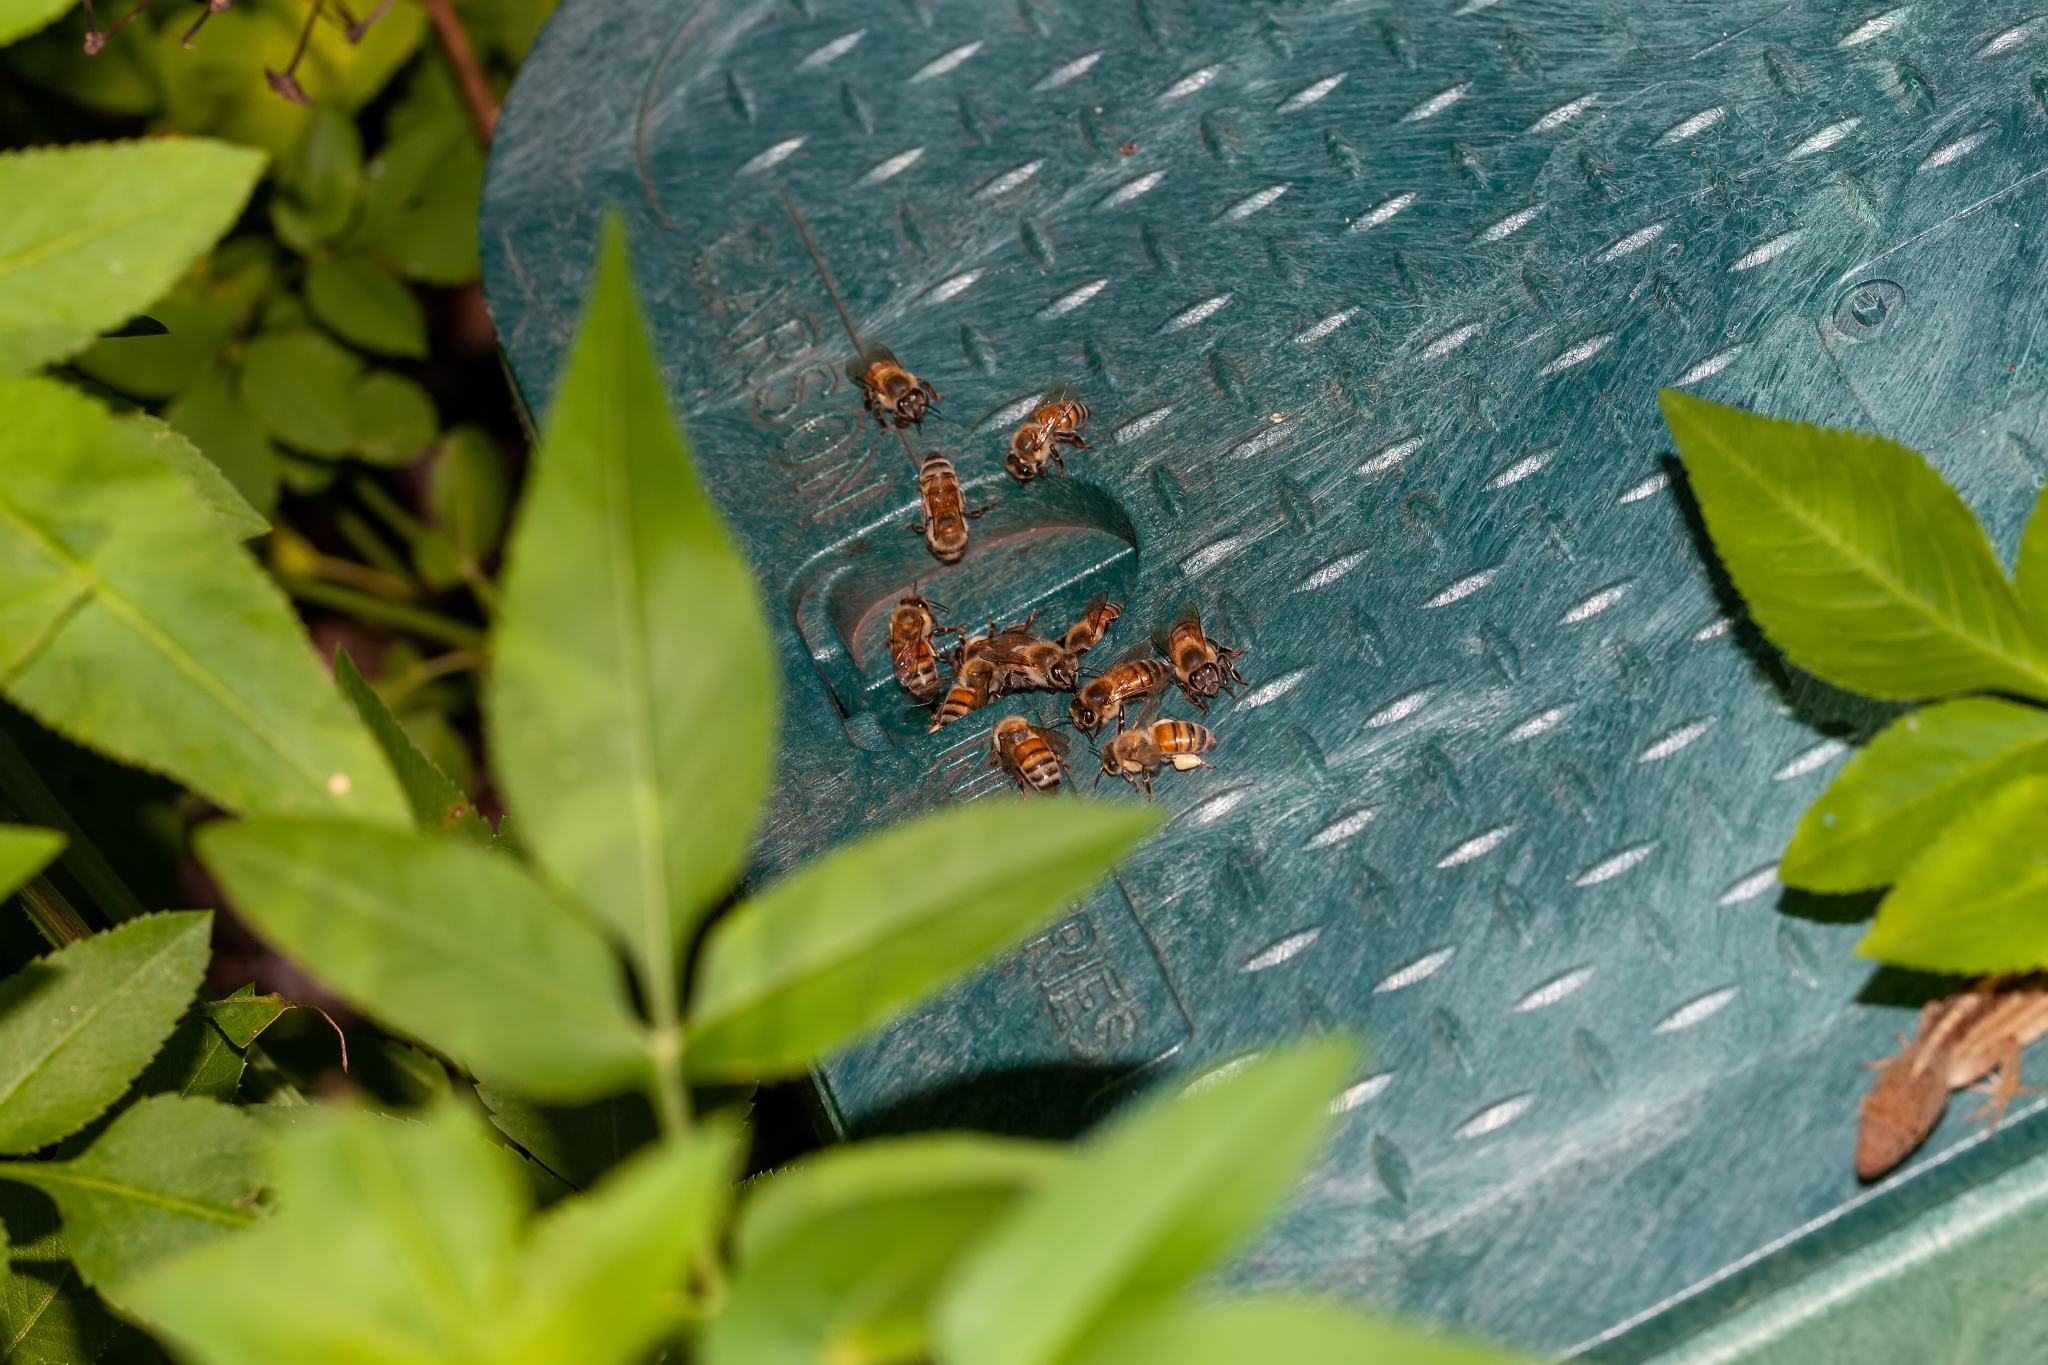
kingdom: Animalia
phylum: Arthropoda
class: Insecta
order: Hymenoptera
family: Apidae
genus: Apis
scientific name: Apis mellifera
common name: Honey bee
